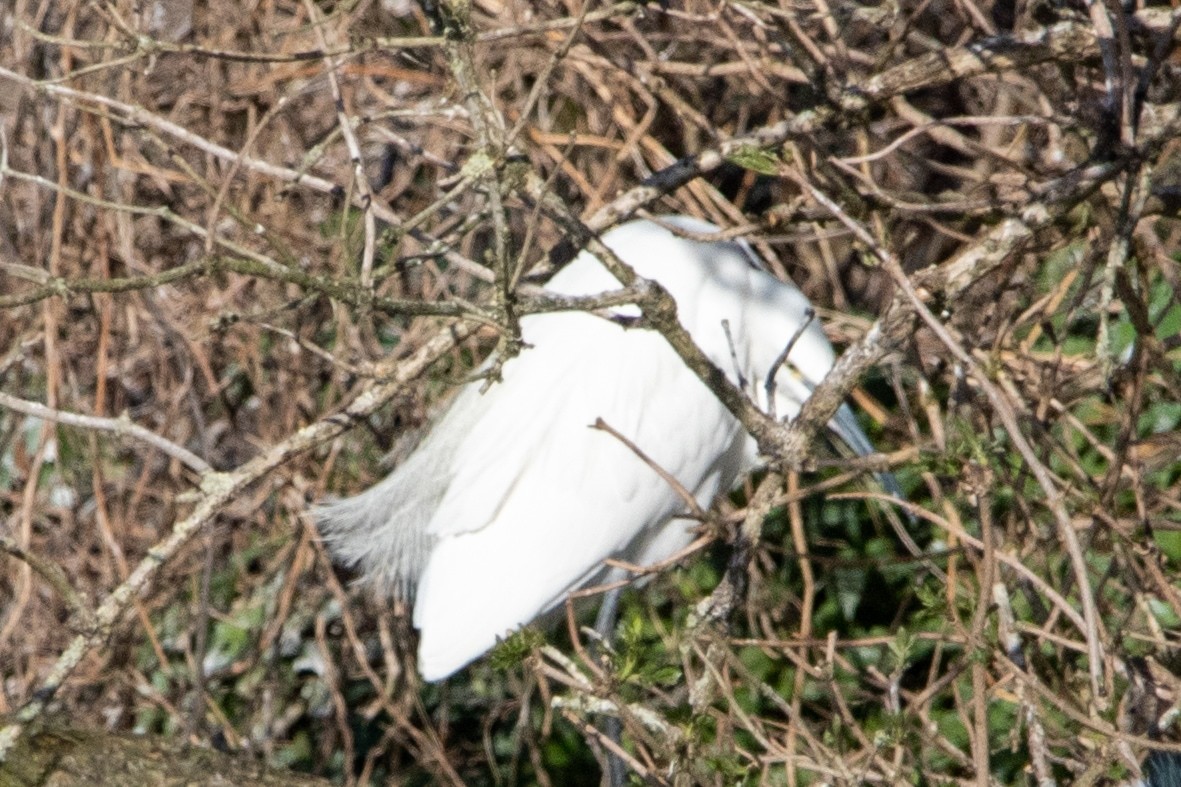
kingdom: Animalia
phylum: Chordata
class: Aves
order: Pelecaniformes
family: Ardeidae
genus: Egretta
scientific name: Egretta garzetta
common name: Little egret
